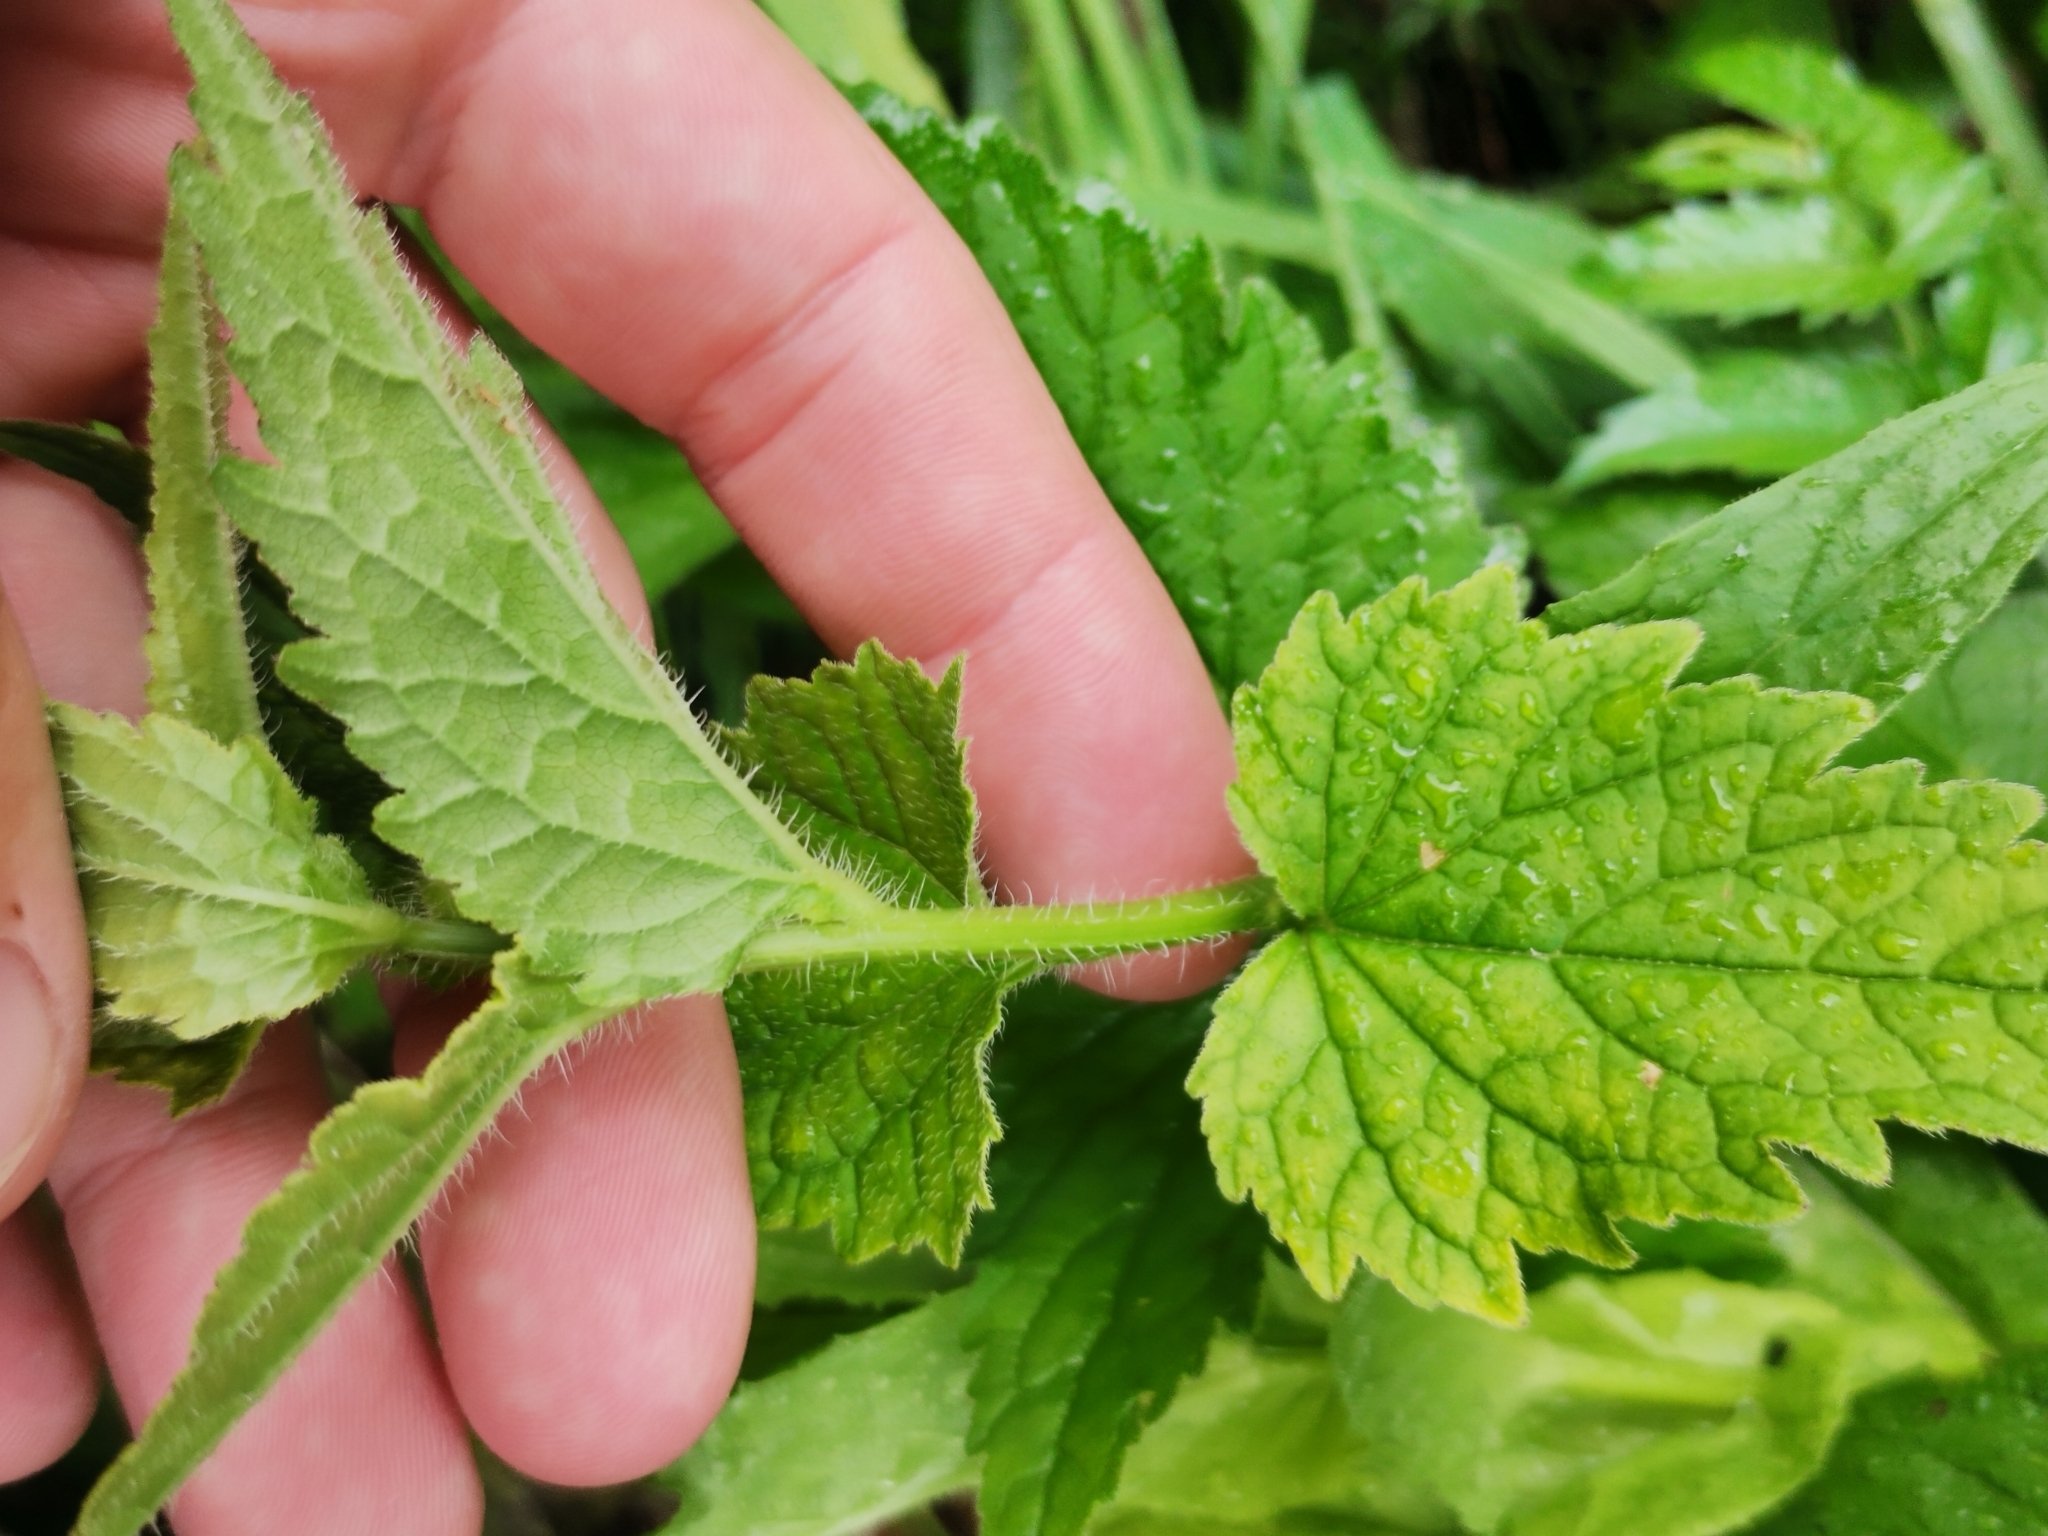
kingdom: Plantae
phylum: Tracheophyta
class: Magnoliopsida
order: Asterales
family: Campanulaceae
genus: Campanula
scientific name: Campanula trachelium
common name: Nettle-leaved bellflower
